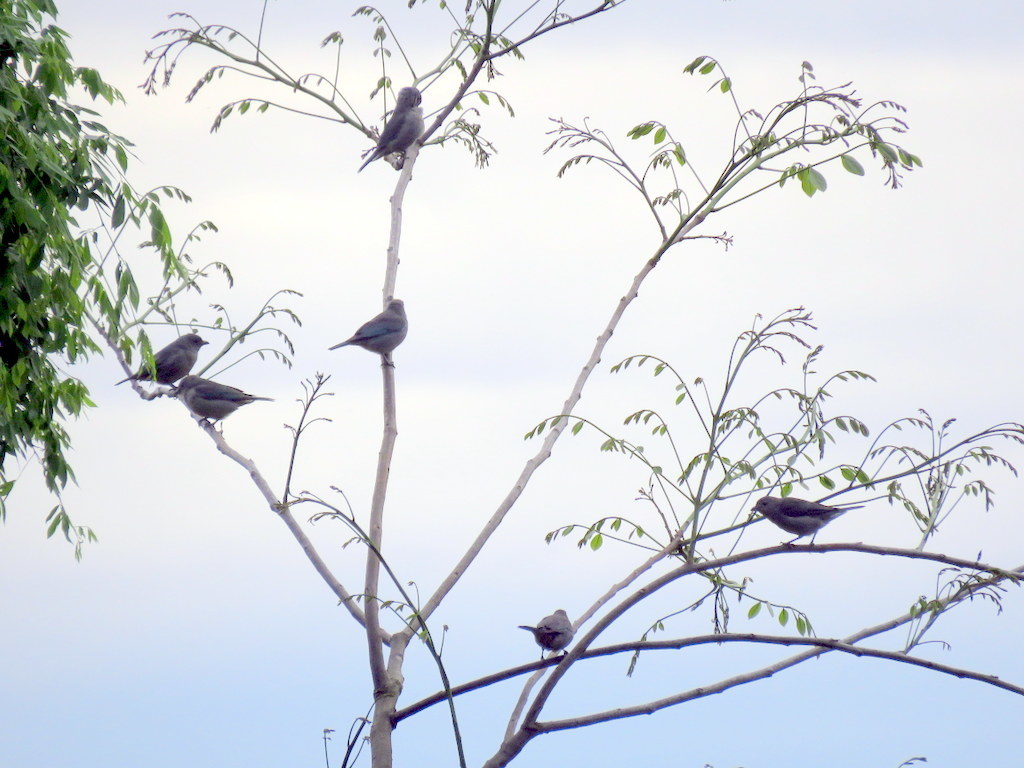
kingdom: Animalia
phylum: Chordata
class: Aves
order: Passeriformes
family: Thraupidae
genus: Thraupis
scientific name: Thraupis sayaca
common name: Sayaca tanager
